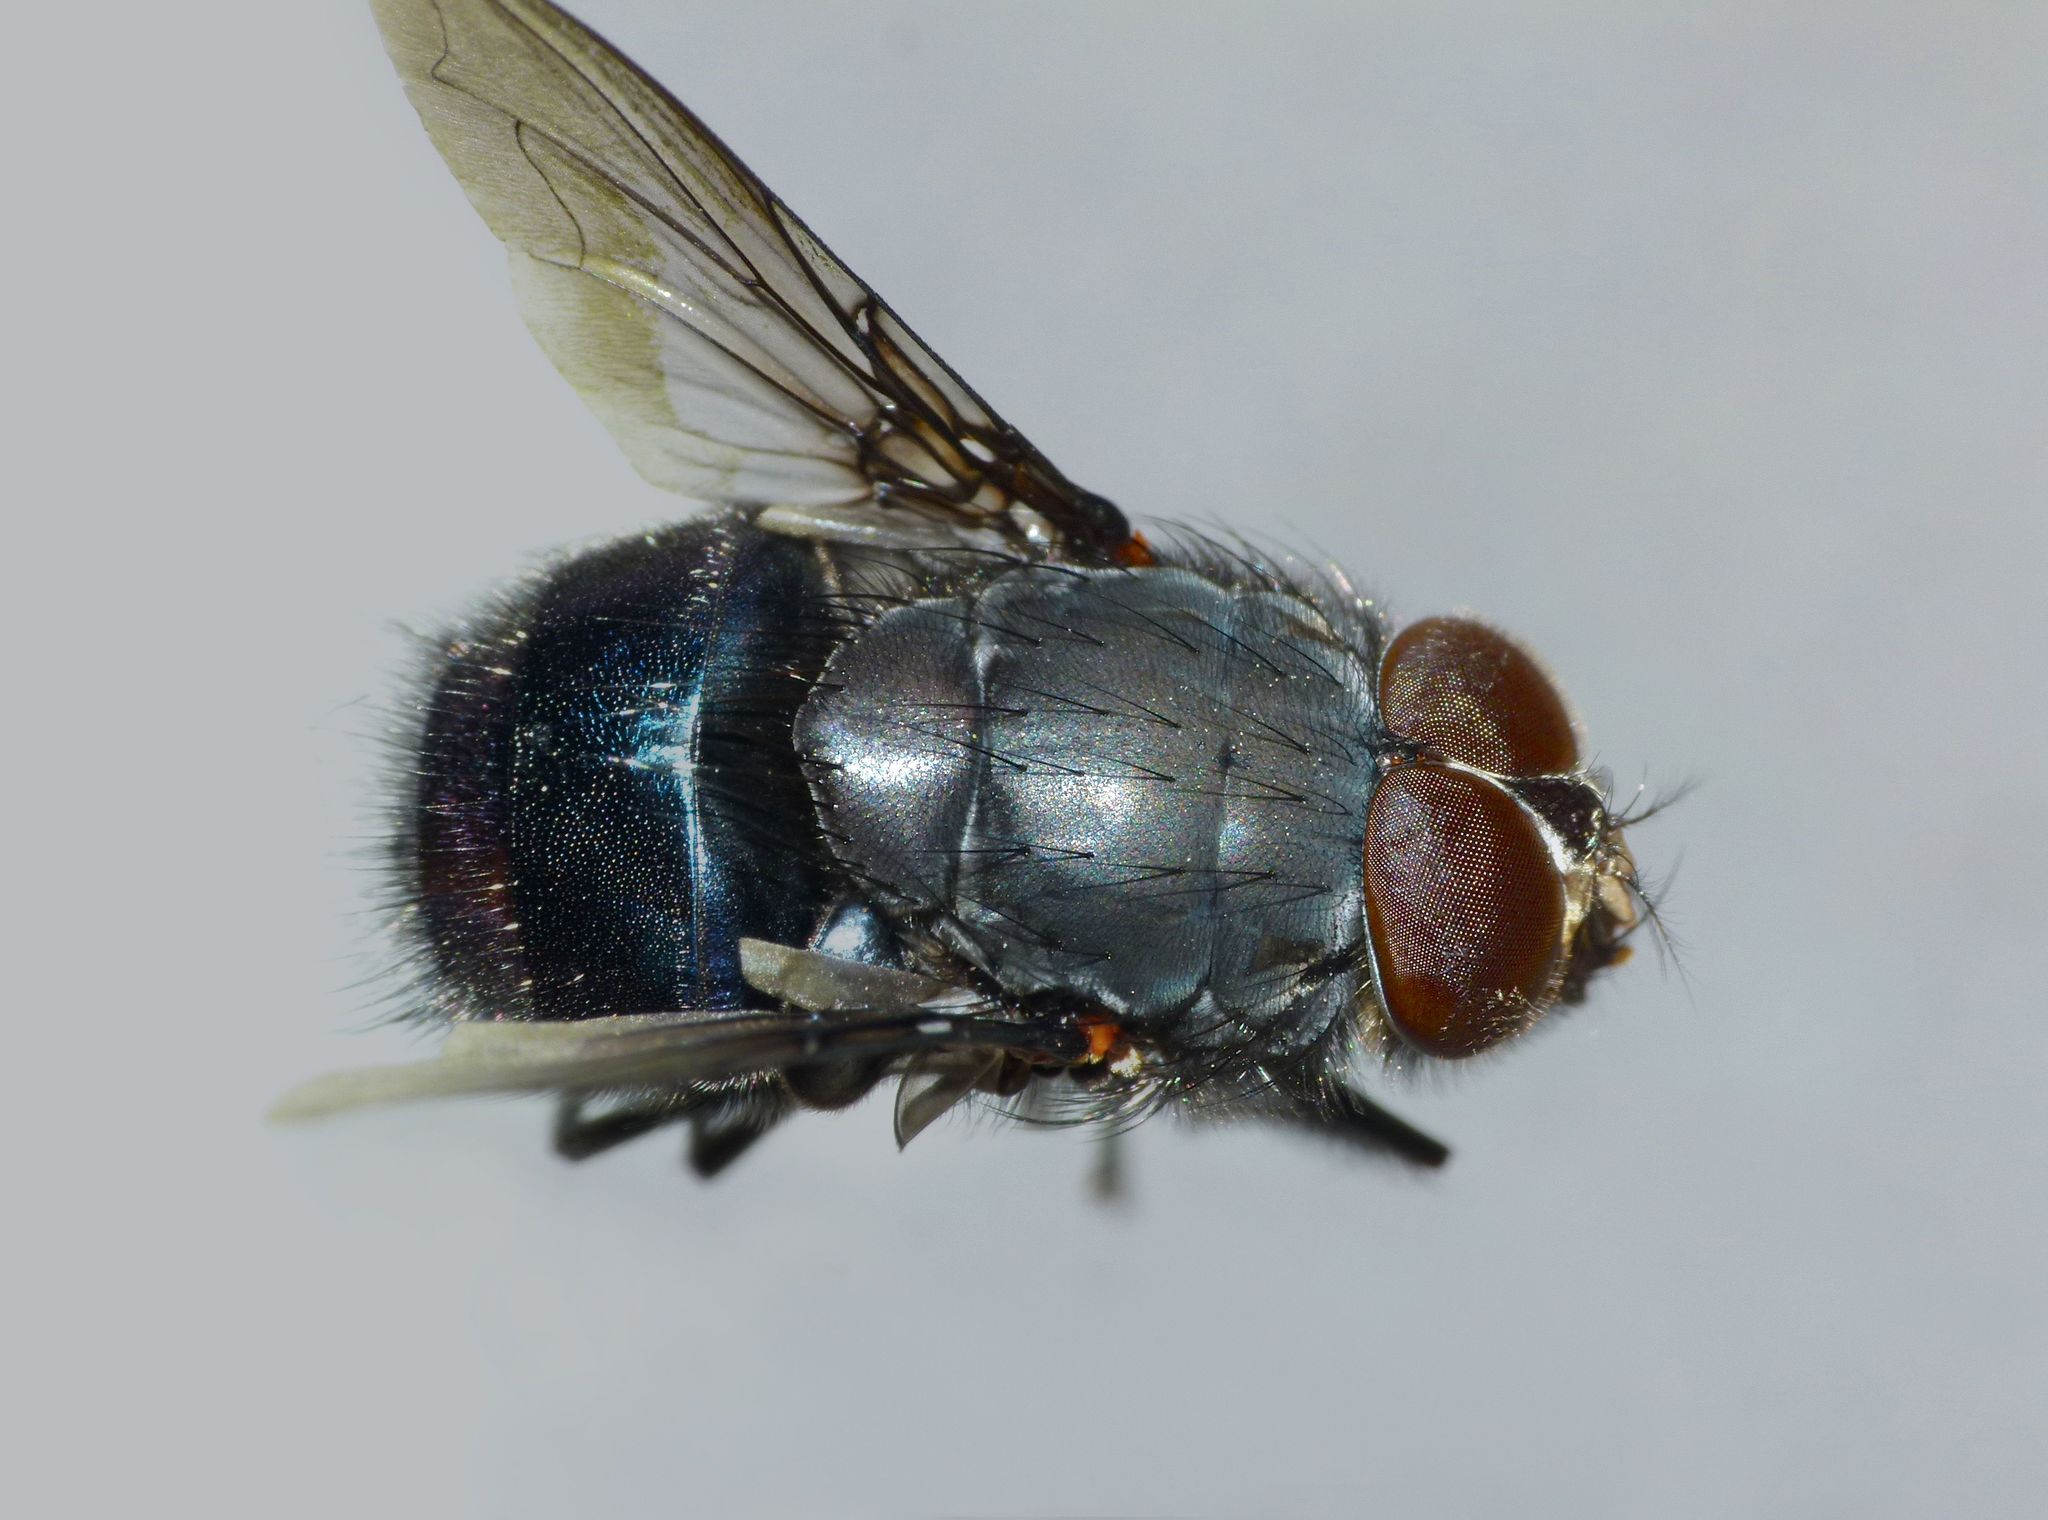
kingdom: Animalia
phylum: Arthropoda
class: Insecta
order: Diptera
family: Calliphoridae
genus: Calliphora
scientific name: Calliphora quadrimaculata
